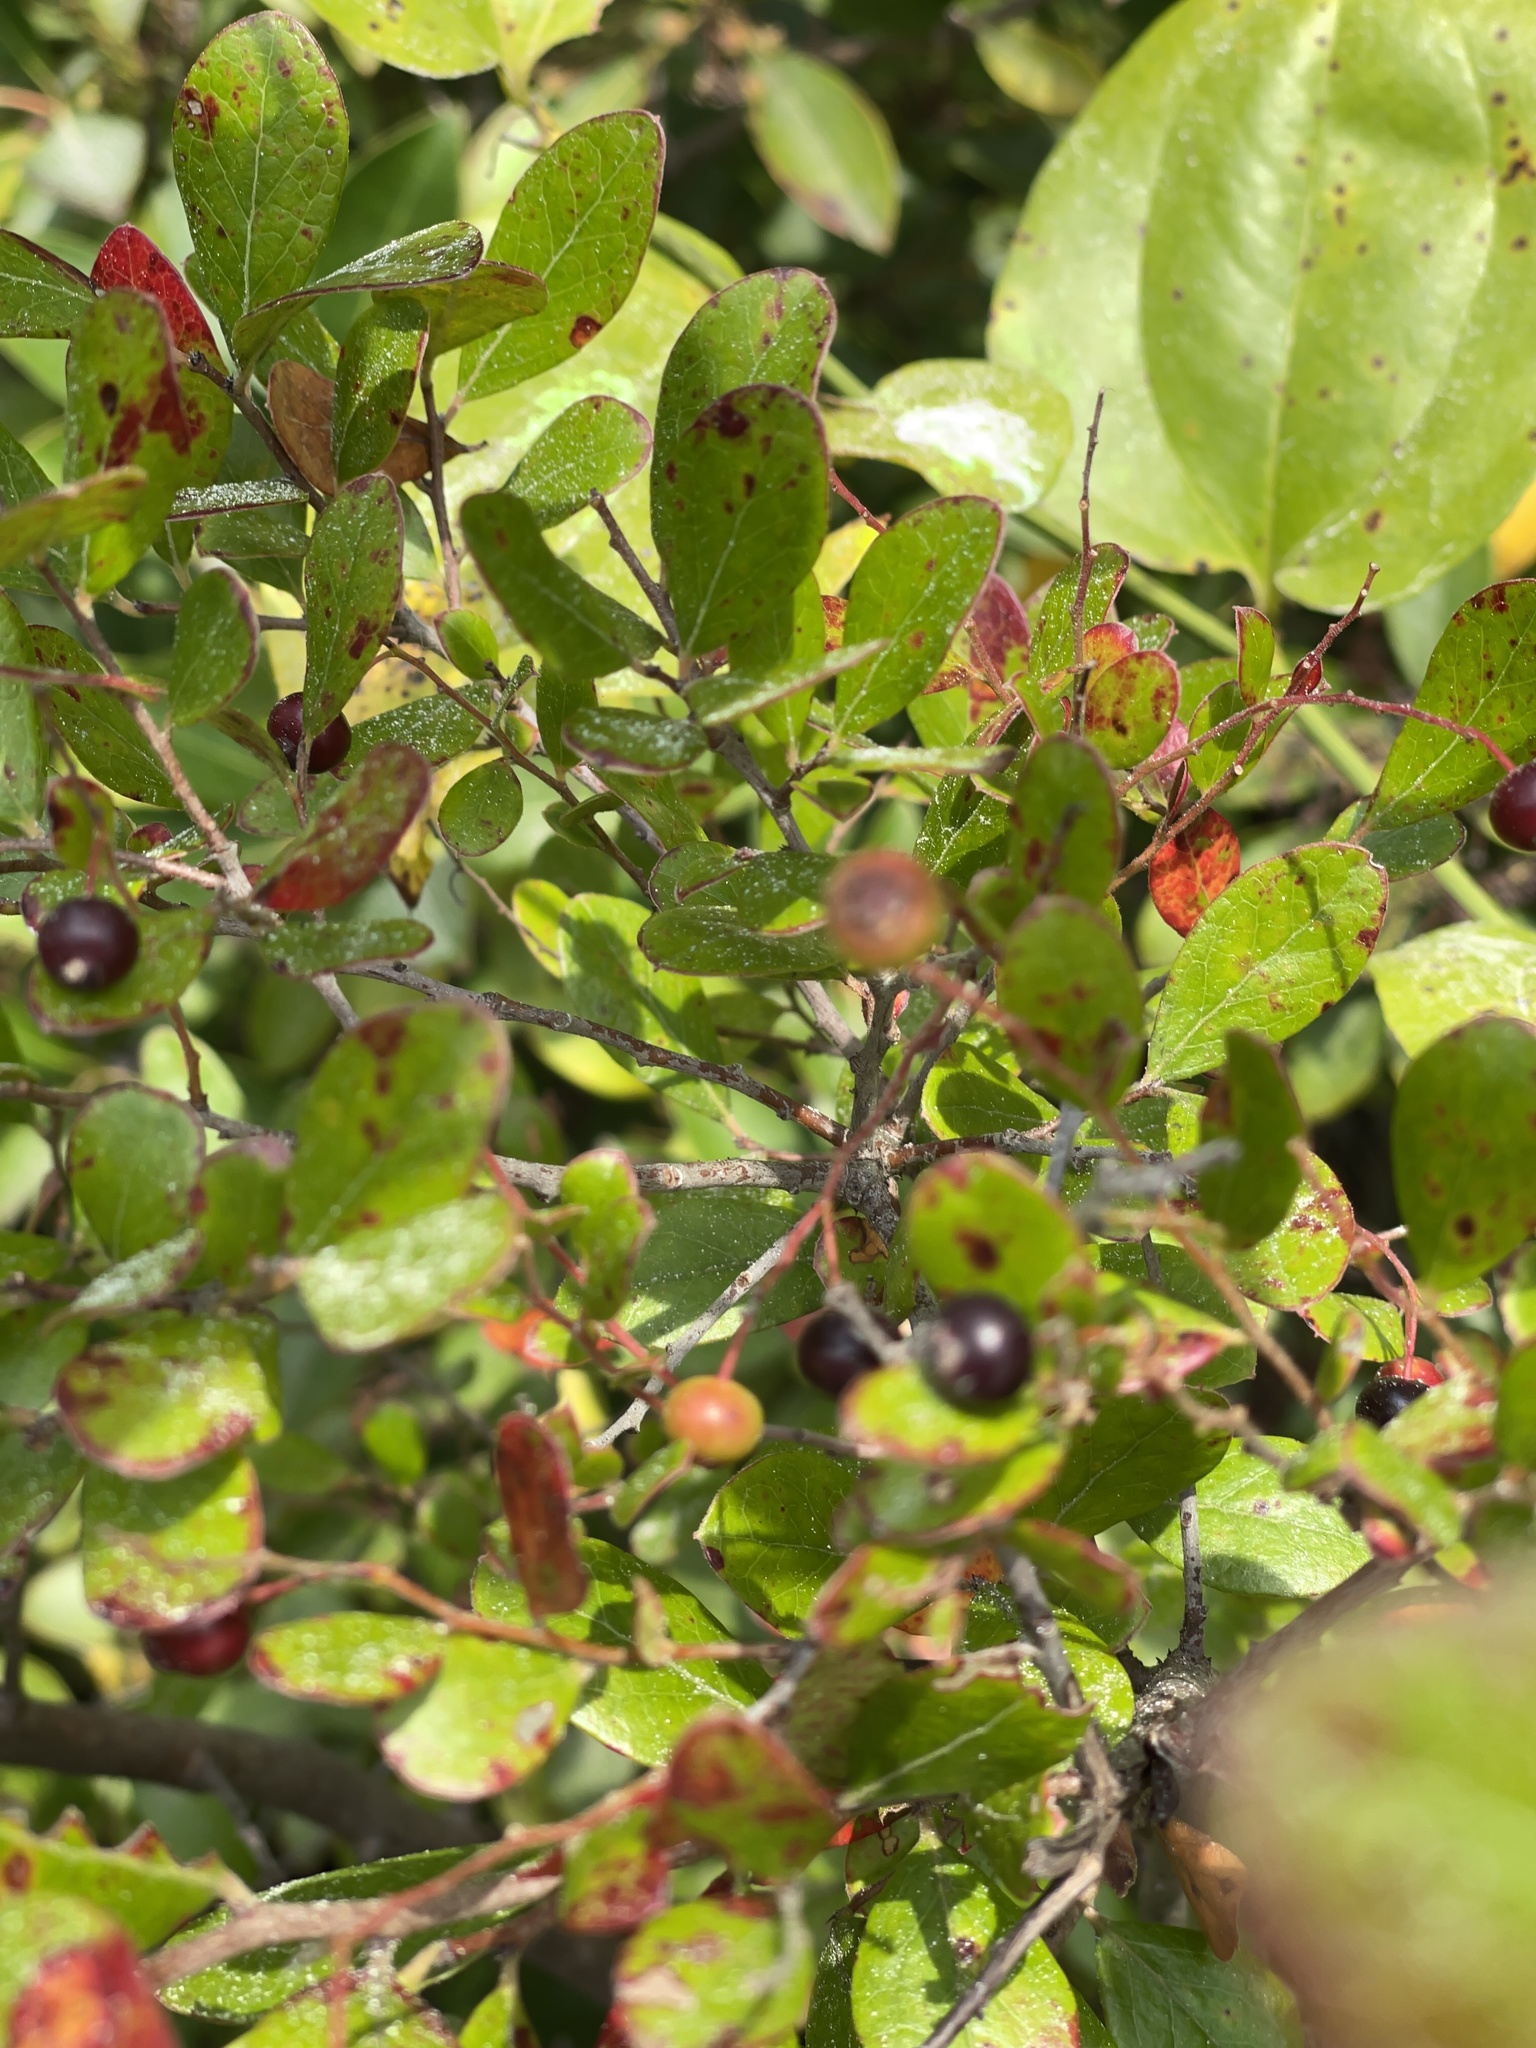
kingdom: Plantae
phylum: Tracheophyta
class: Magnoliopsida
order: Ericales
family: Ericaceae
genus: Vaccinium
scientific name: Vaccinium arboreum
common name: Farkleberry
